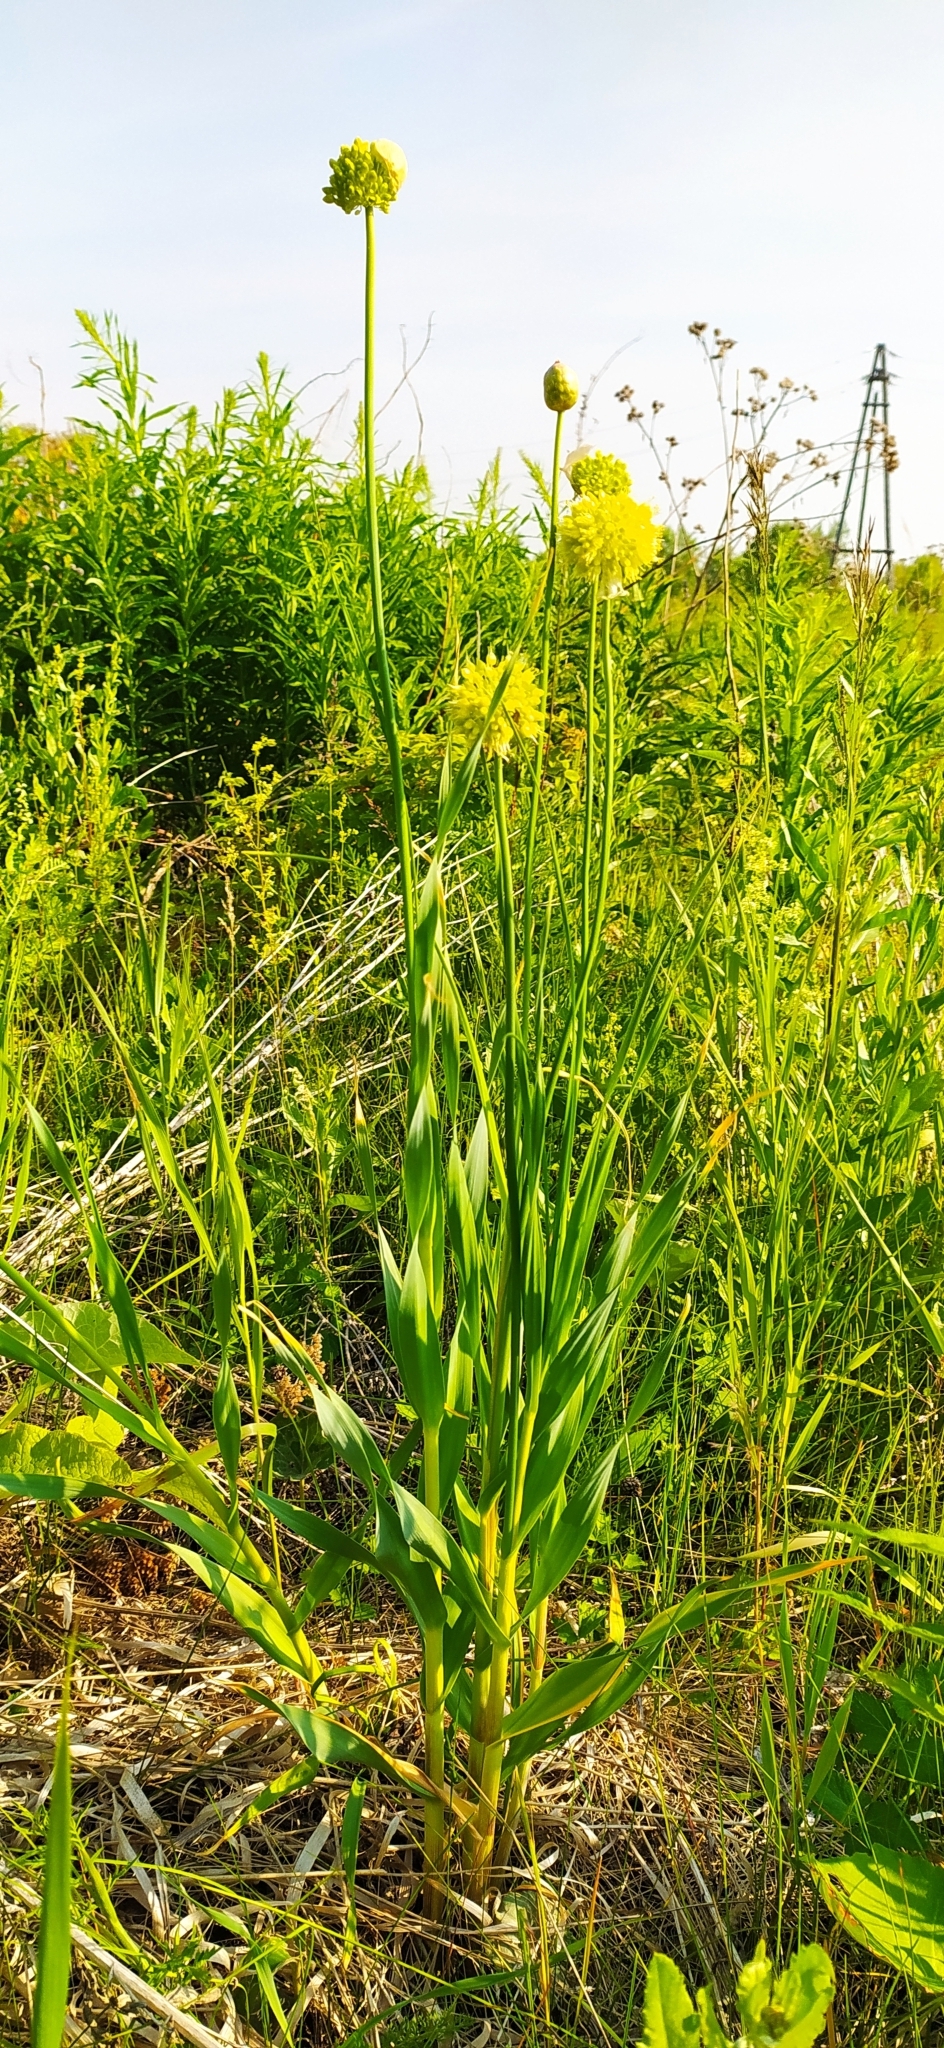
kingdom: Plantae
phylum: Tracheophyta
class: Liliopsida
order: Asparagales
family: Amaryllidaceae
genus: Allium
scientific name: Allium obliquum
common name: Oblique onion
